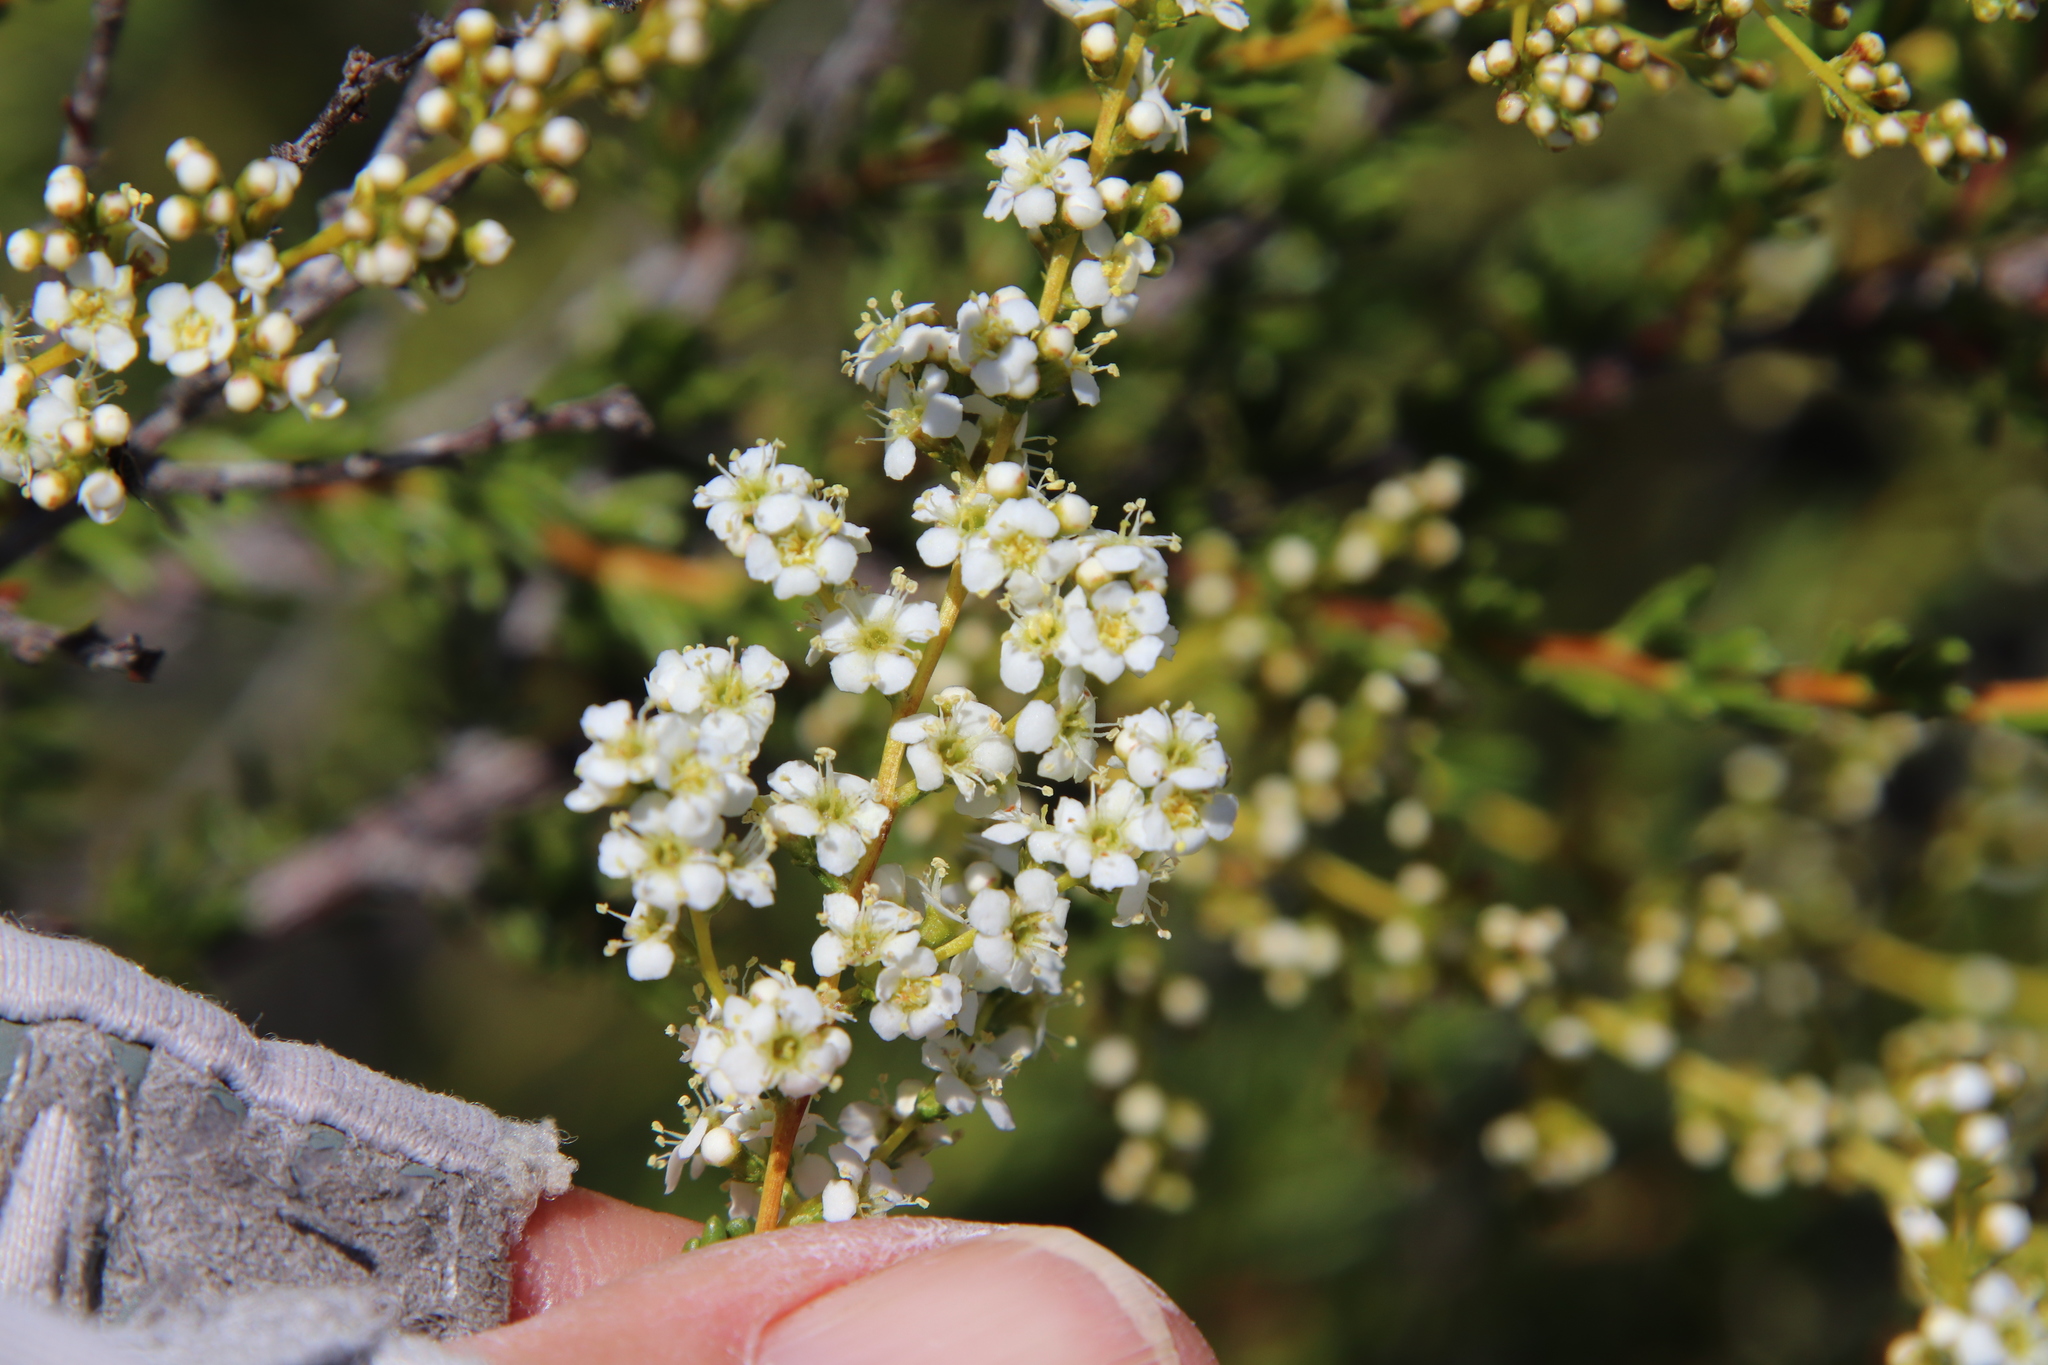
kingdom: Plantae
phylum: Tracheophyta
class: Magnoliopsida
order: Rosales
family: Rosaceae
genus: Adenostoma
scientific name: Adenostoma fasciculatum
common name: Chamise
